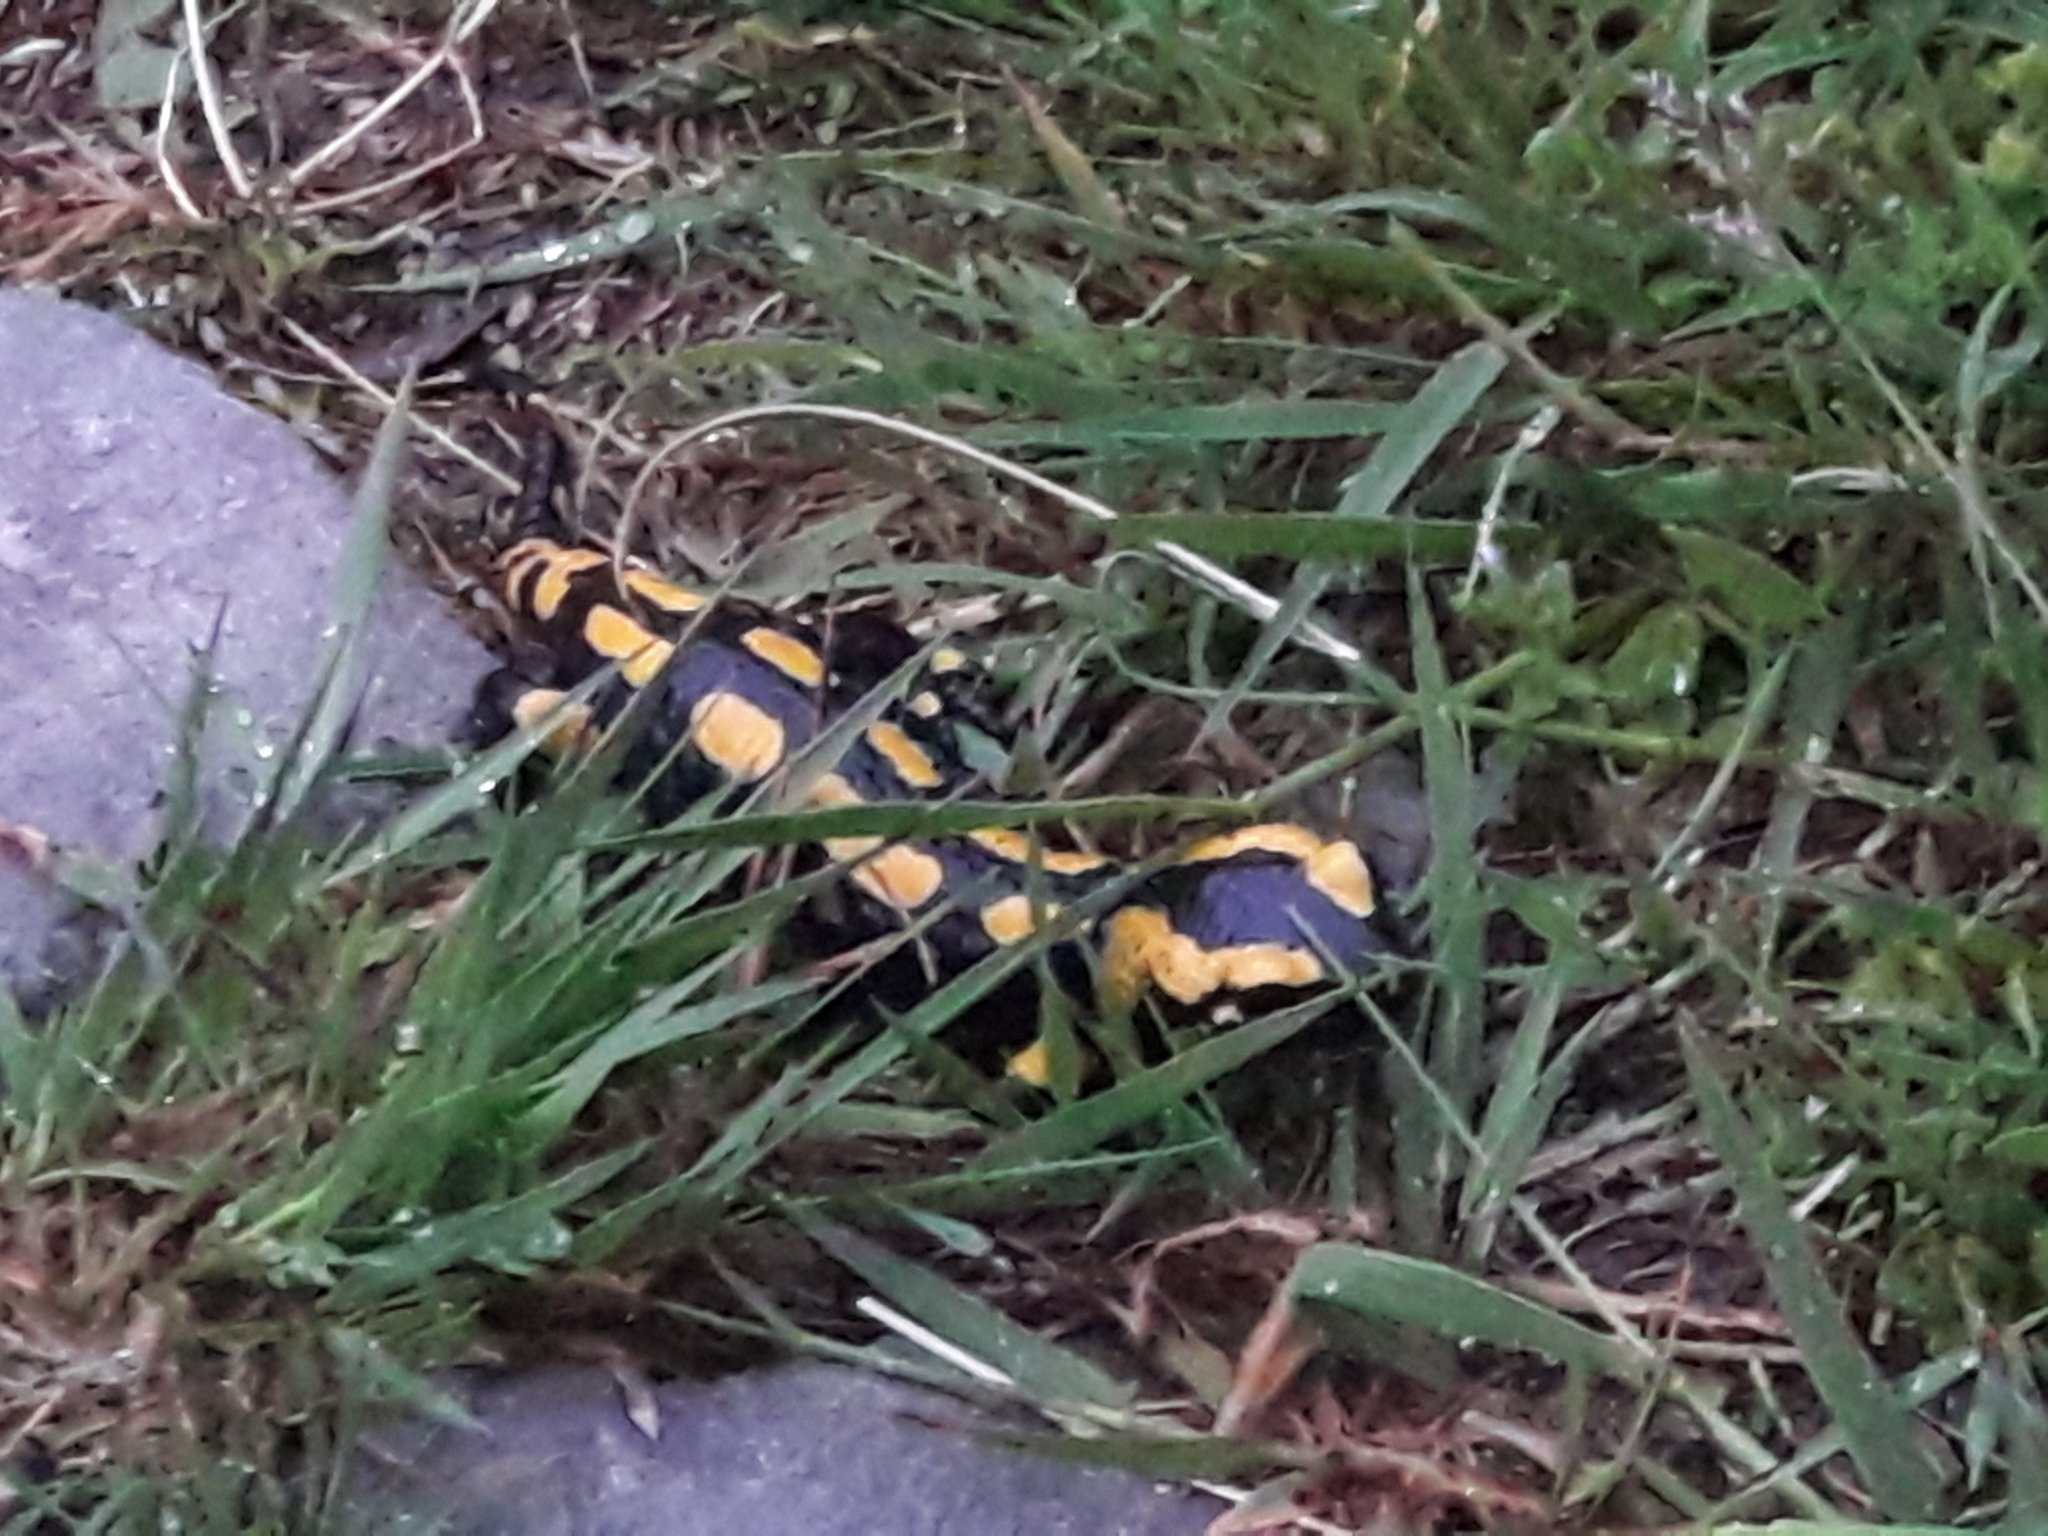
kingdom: Animalia
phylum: Chordata
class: Amphibia
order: Caudata
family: Salamandridae
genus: Salamandra
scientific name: Salamandra salamandra
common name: Fire salamander
